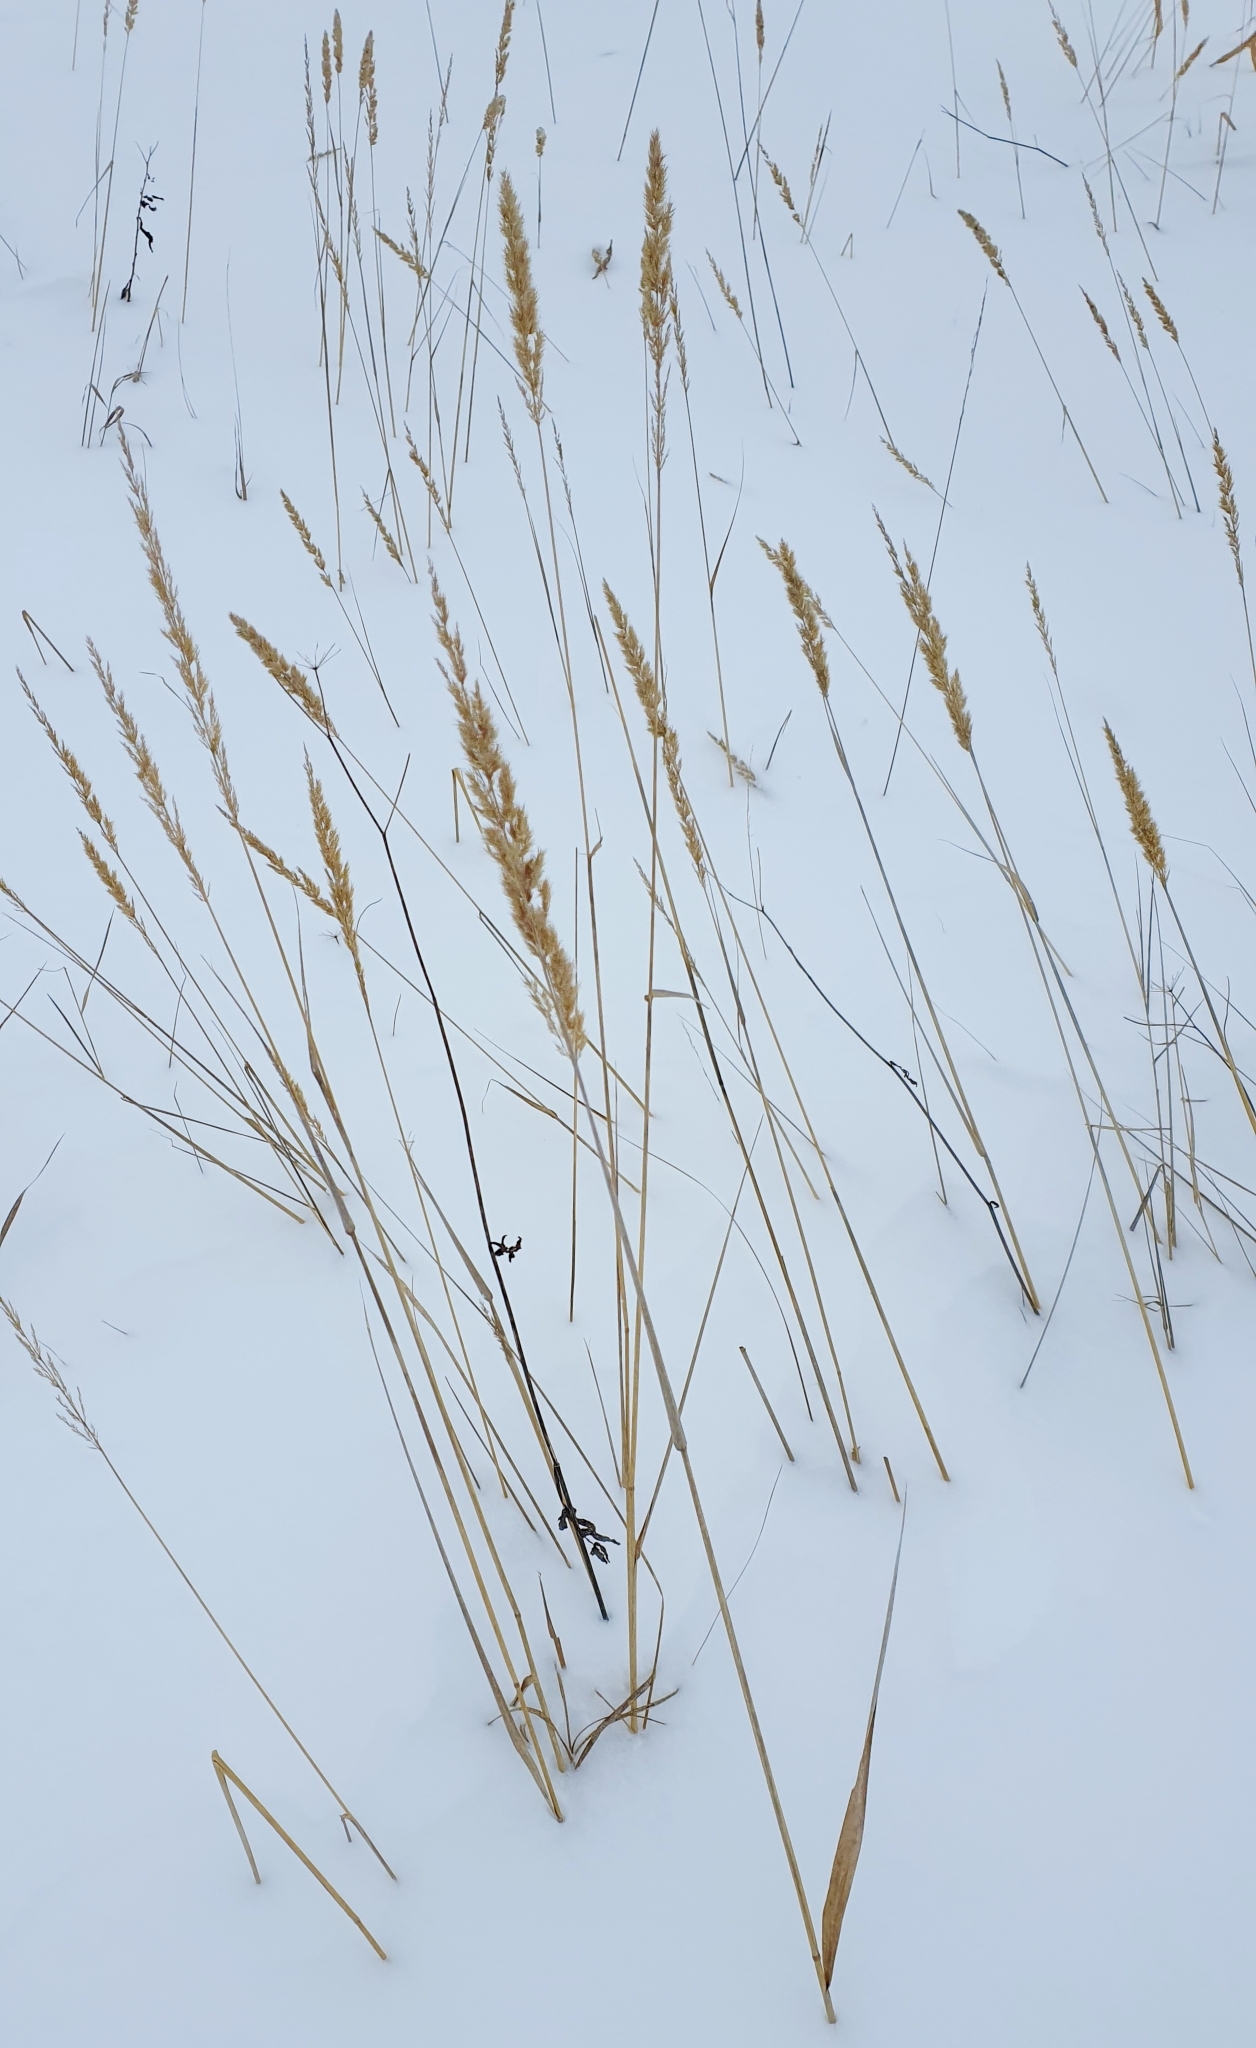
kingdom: Plantae
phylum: Tracheophyta
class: Liliopsida
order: Poales
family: Poaceae
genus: Calamagrostis
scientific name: Calamagrostis epigejos
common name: Wood small-reed
